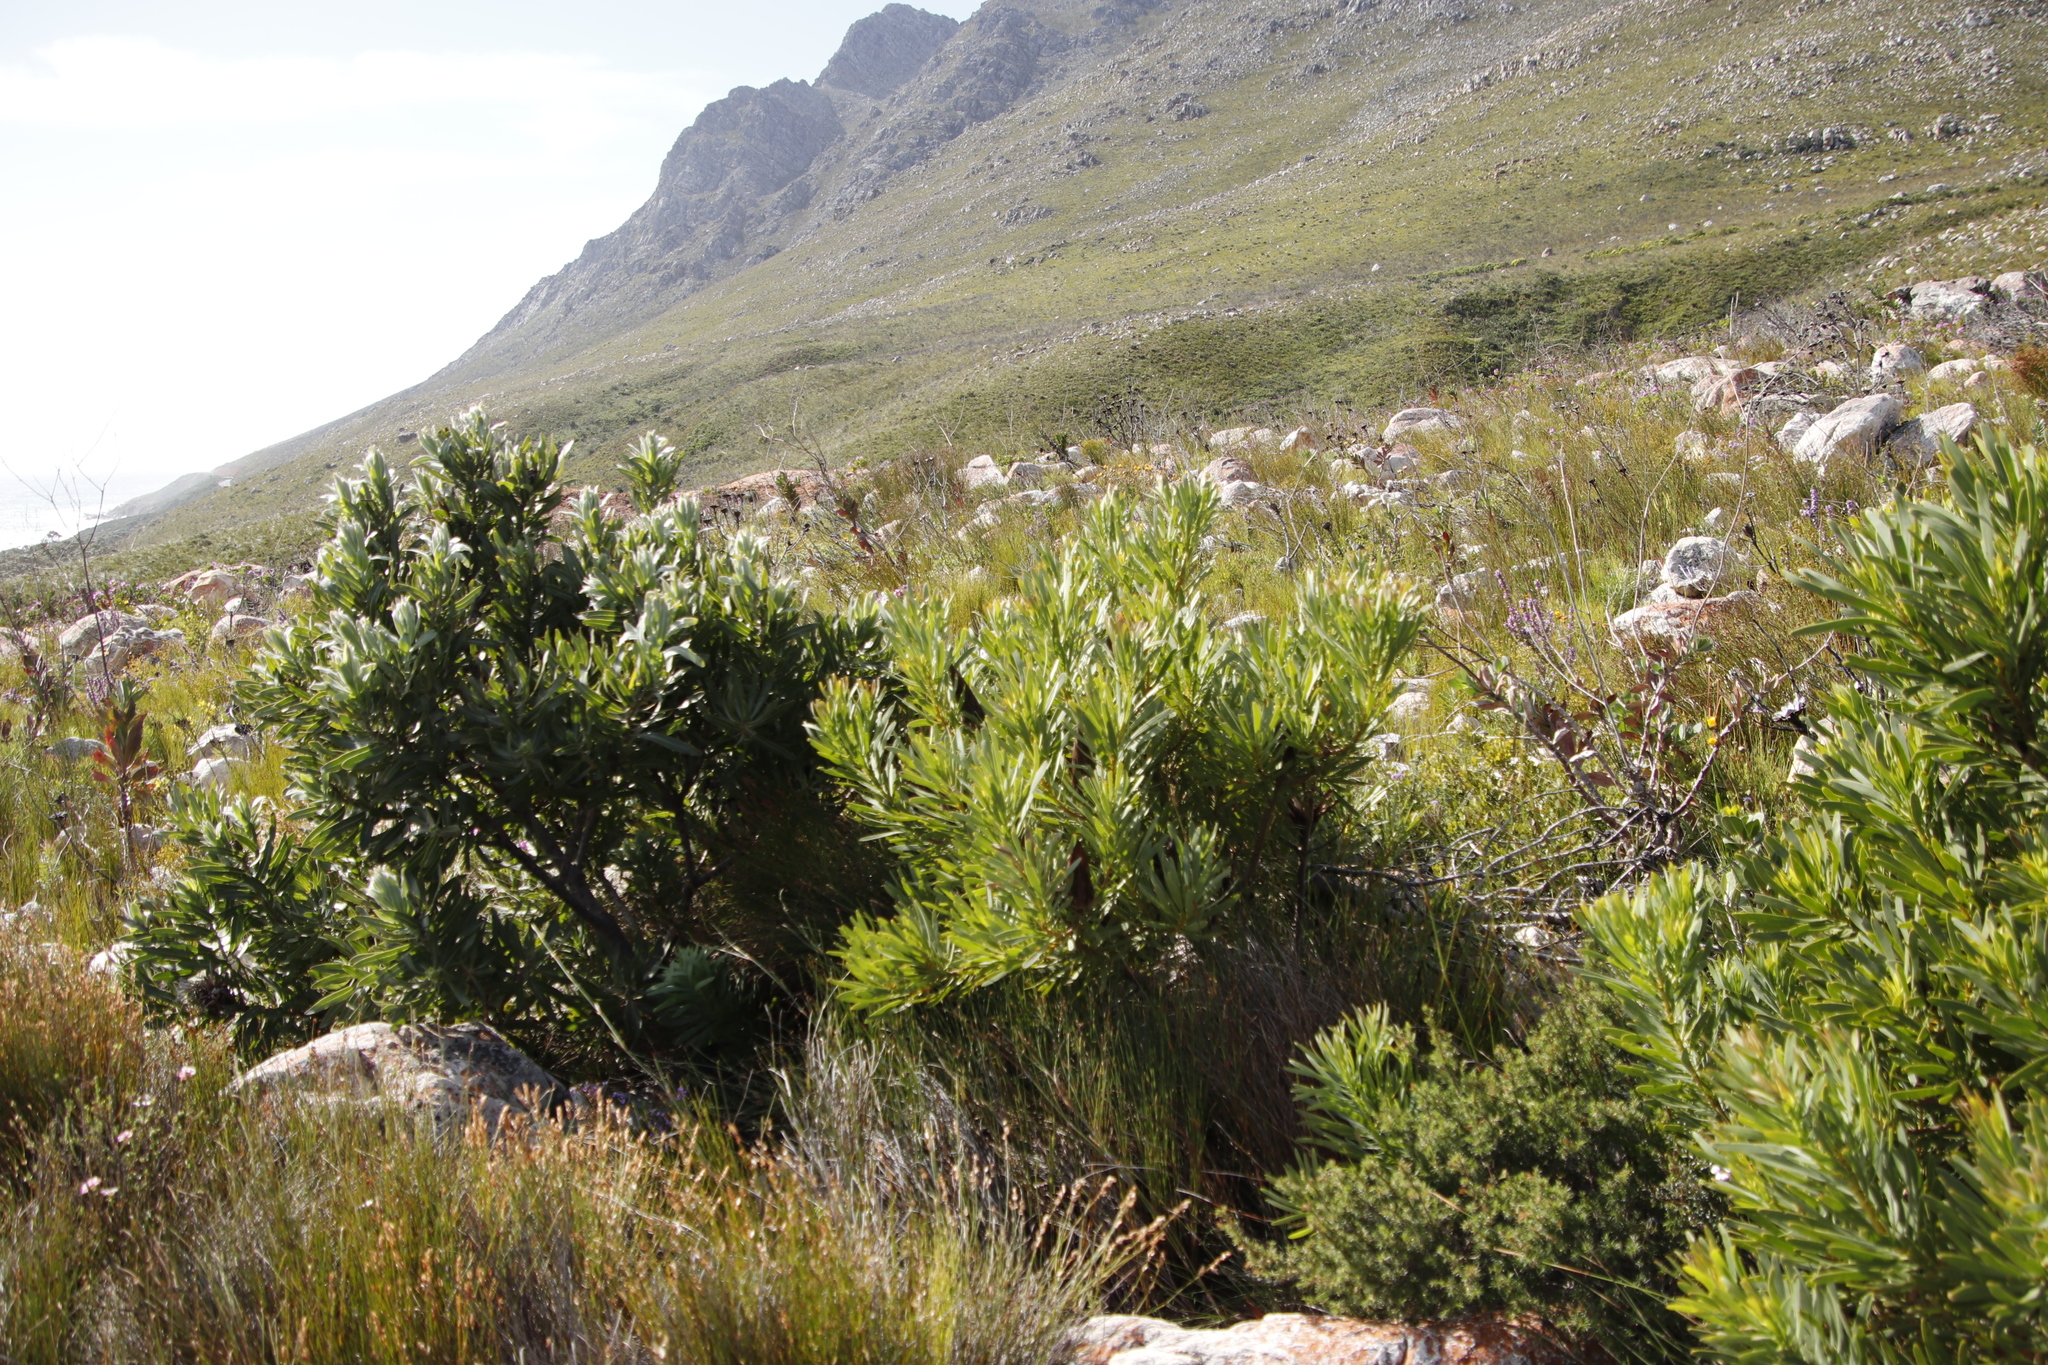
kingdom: Plantae
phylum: Tracheophyta
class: Magnoliopsida
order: Proteales
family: Proteaceae
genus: Protea
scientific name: Protea repens
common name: Sugarbush
